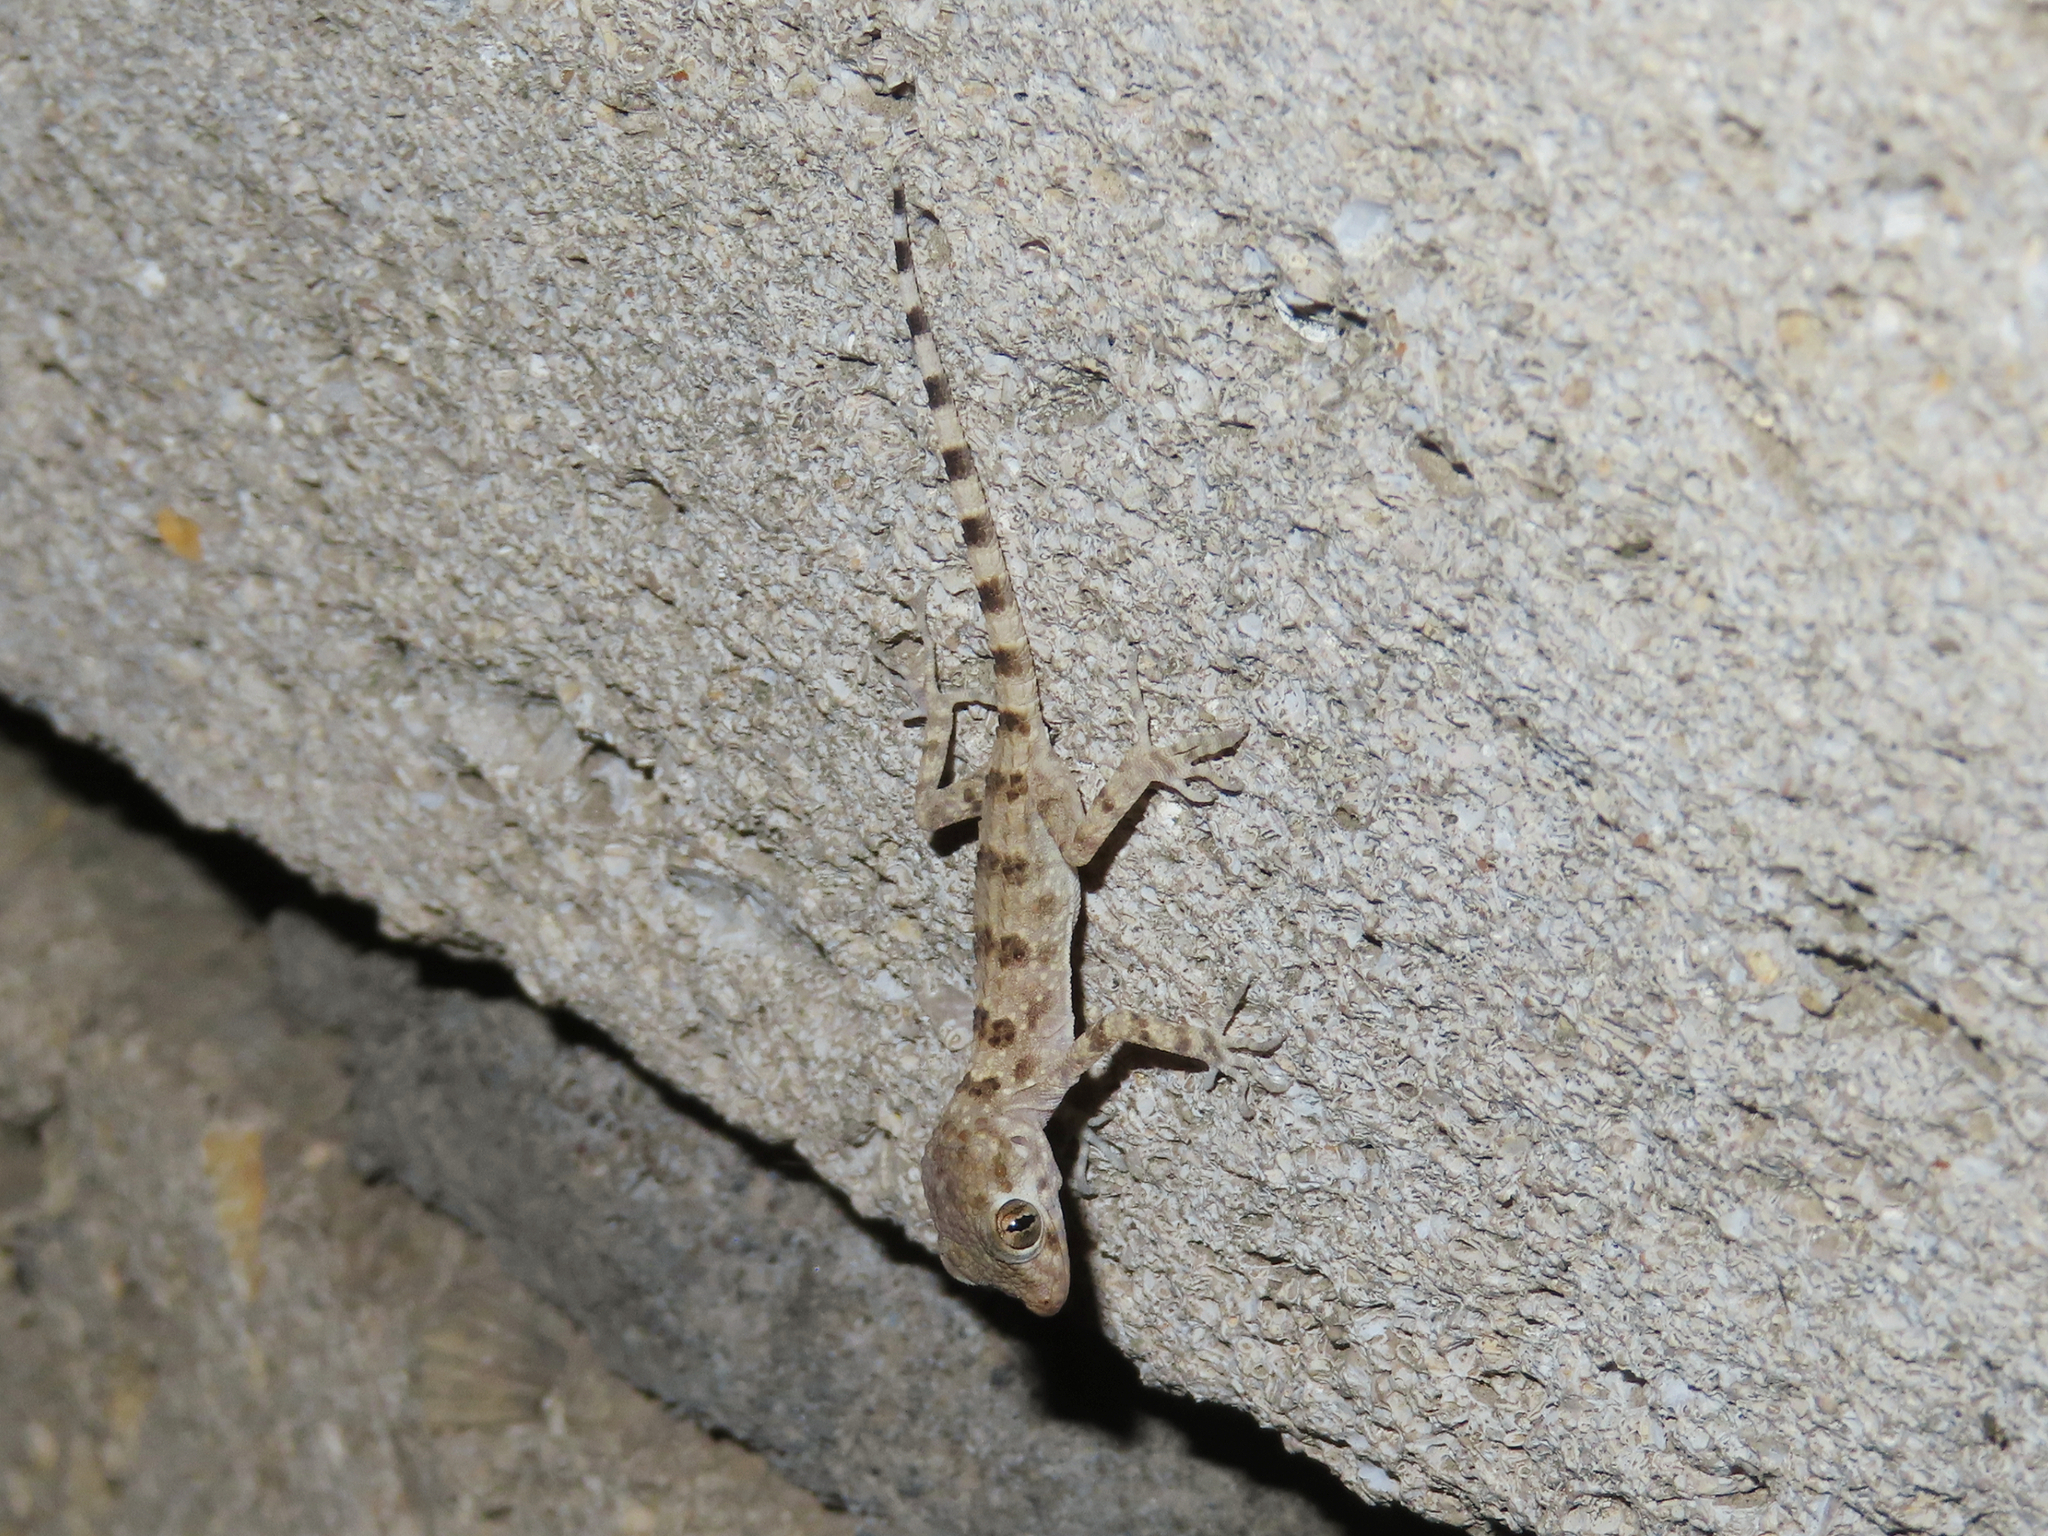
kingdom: Animalia
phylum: Chordata
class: Squamata
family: Gekkonidae
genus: Tenuidactylus
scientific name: Tenuidactylus caspius
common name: Caspian bent-toed gecko
